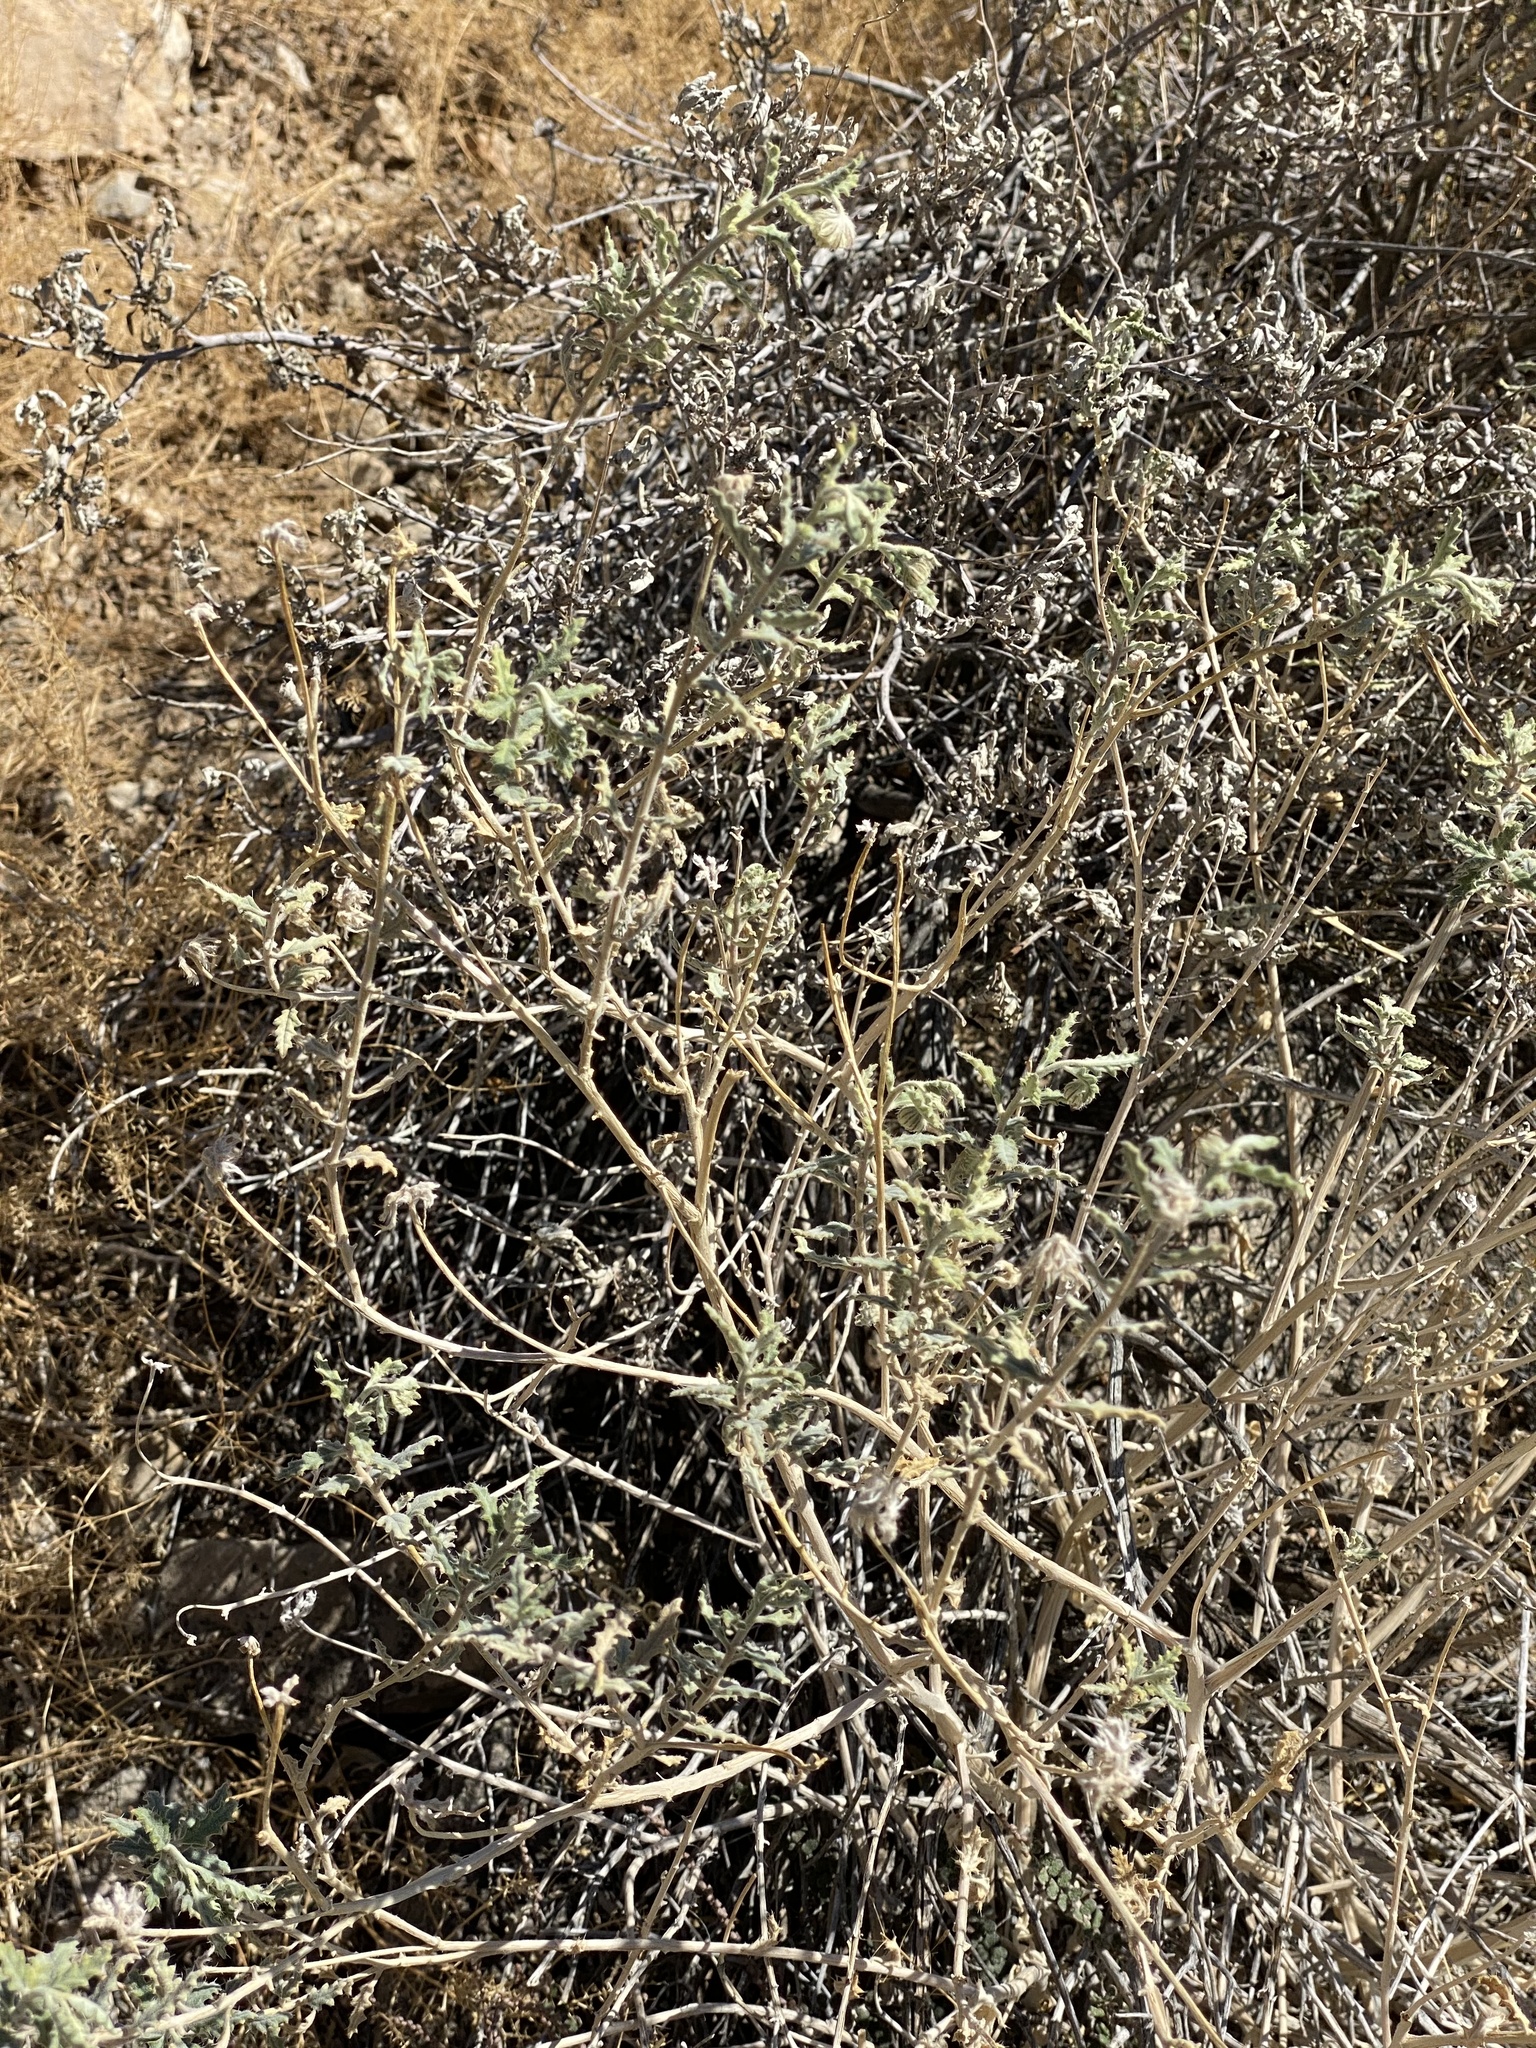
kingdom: Plantae
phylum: Tracheophyta
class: Magnoliopsida
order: Cornales
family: Loasaceae
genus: Cevallia
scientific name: Cevallia sinuata
